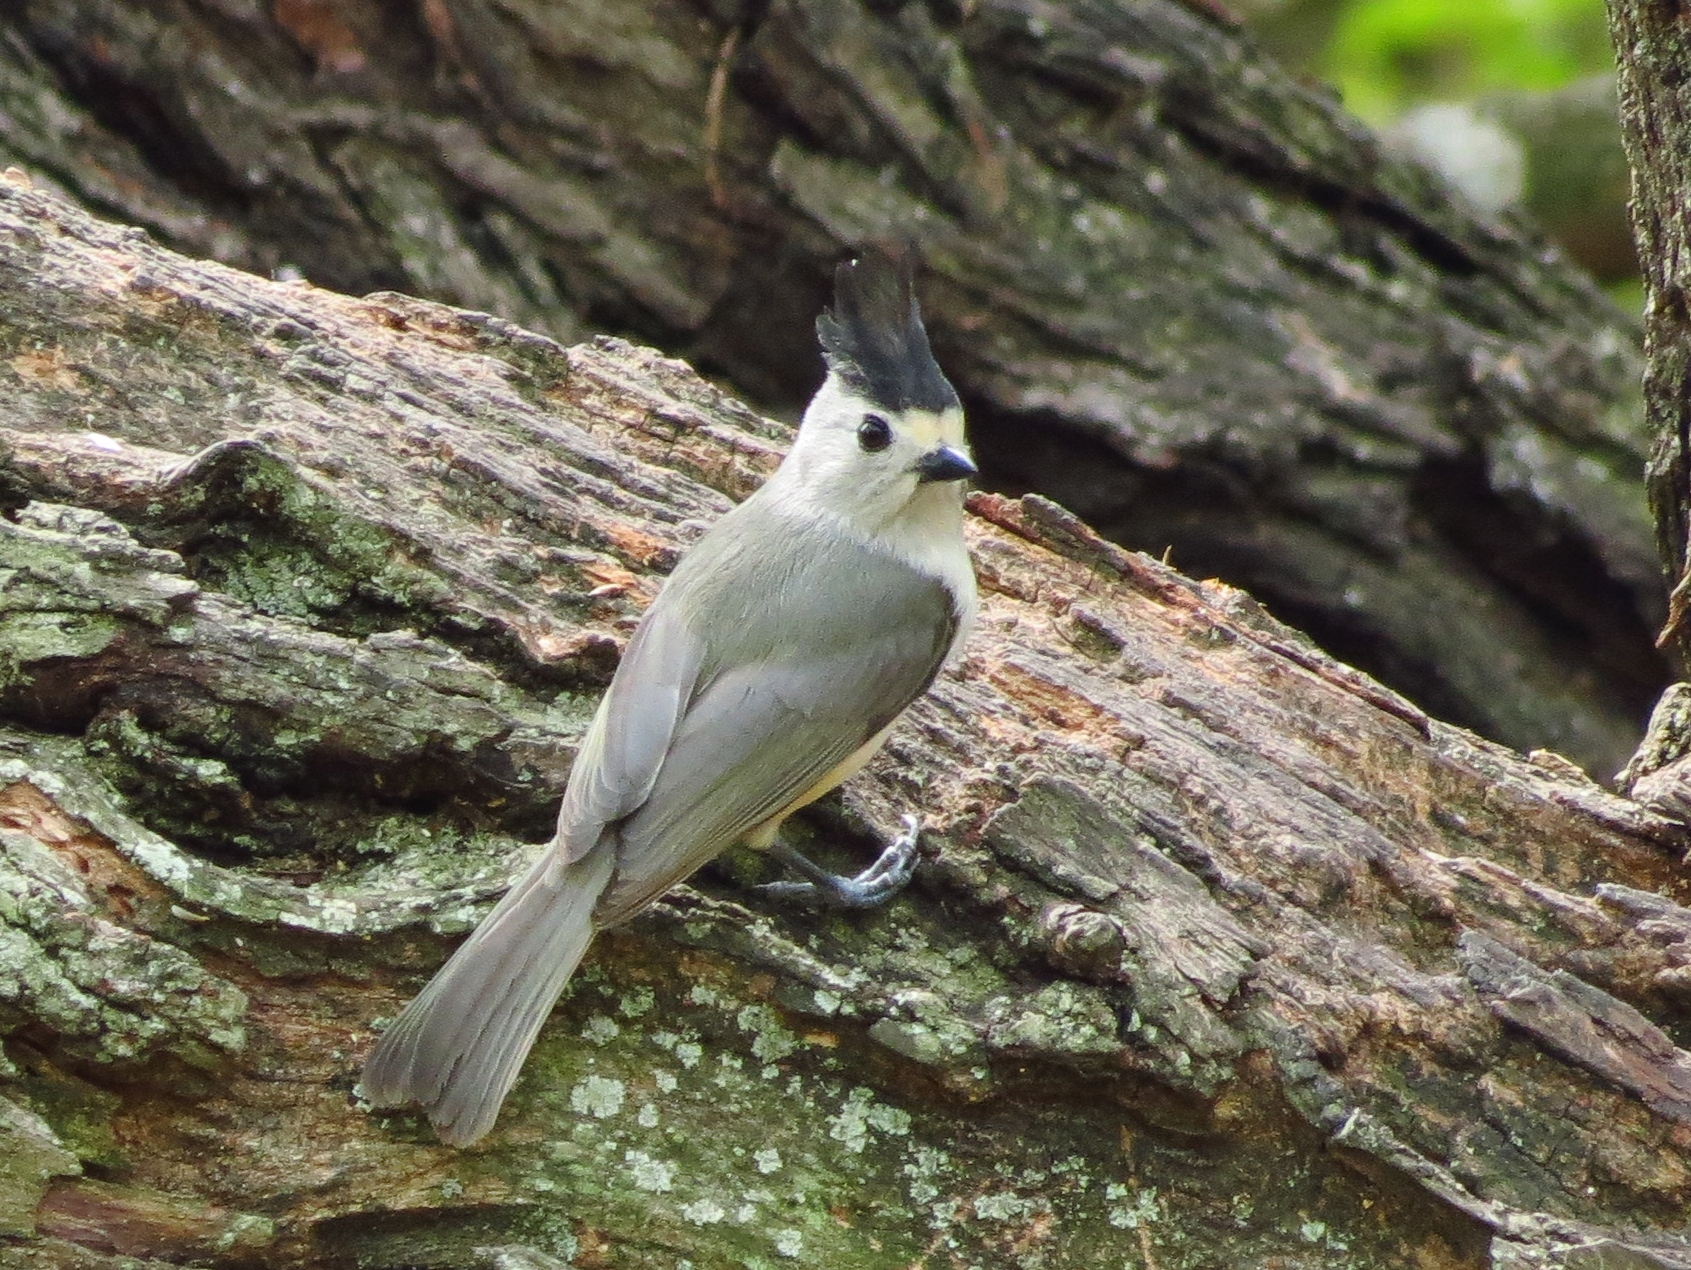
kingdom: Animalia
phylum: Chordata
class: Aves
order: Passeriformes
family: Paridae
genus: Baeolophus
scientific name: Baeolophus atricristatus
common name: Black-crested titmouse
